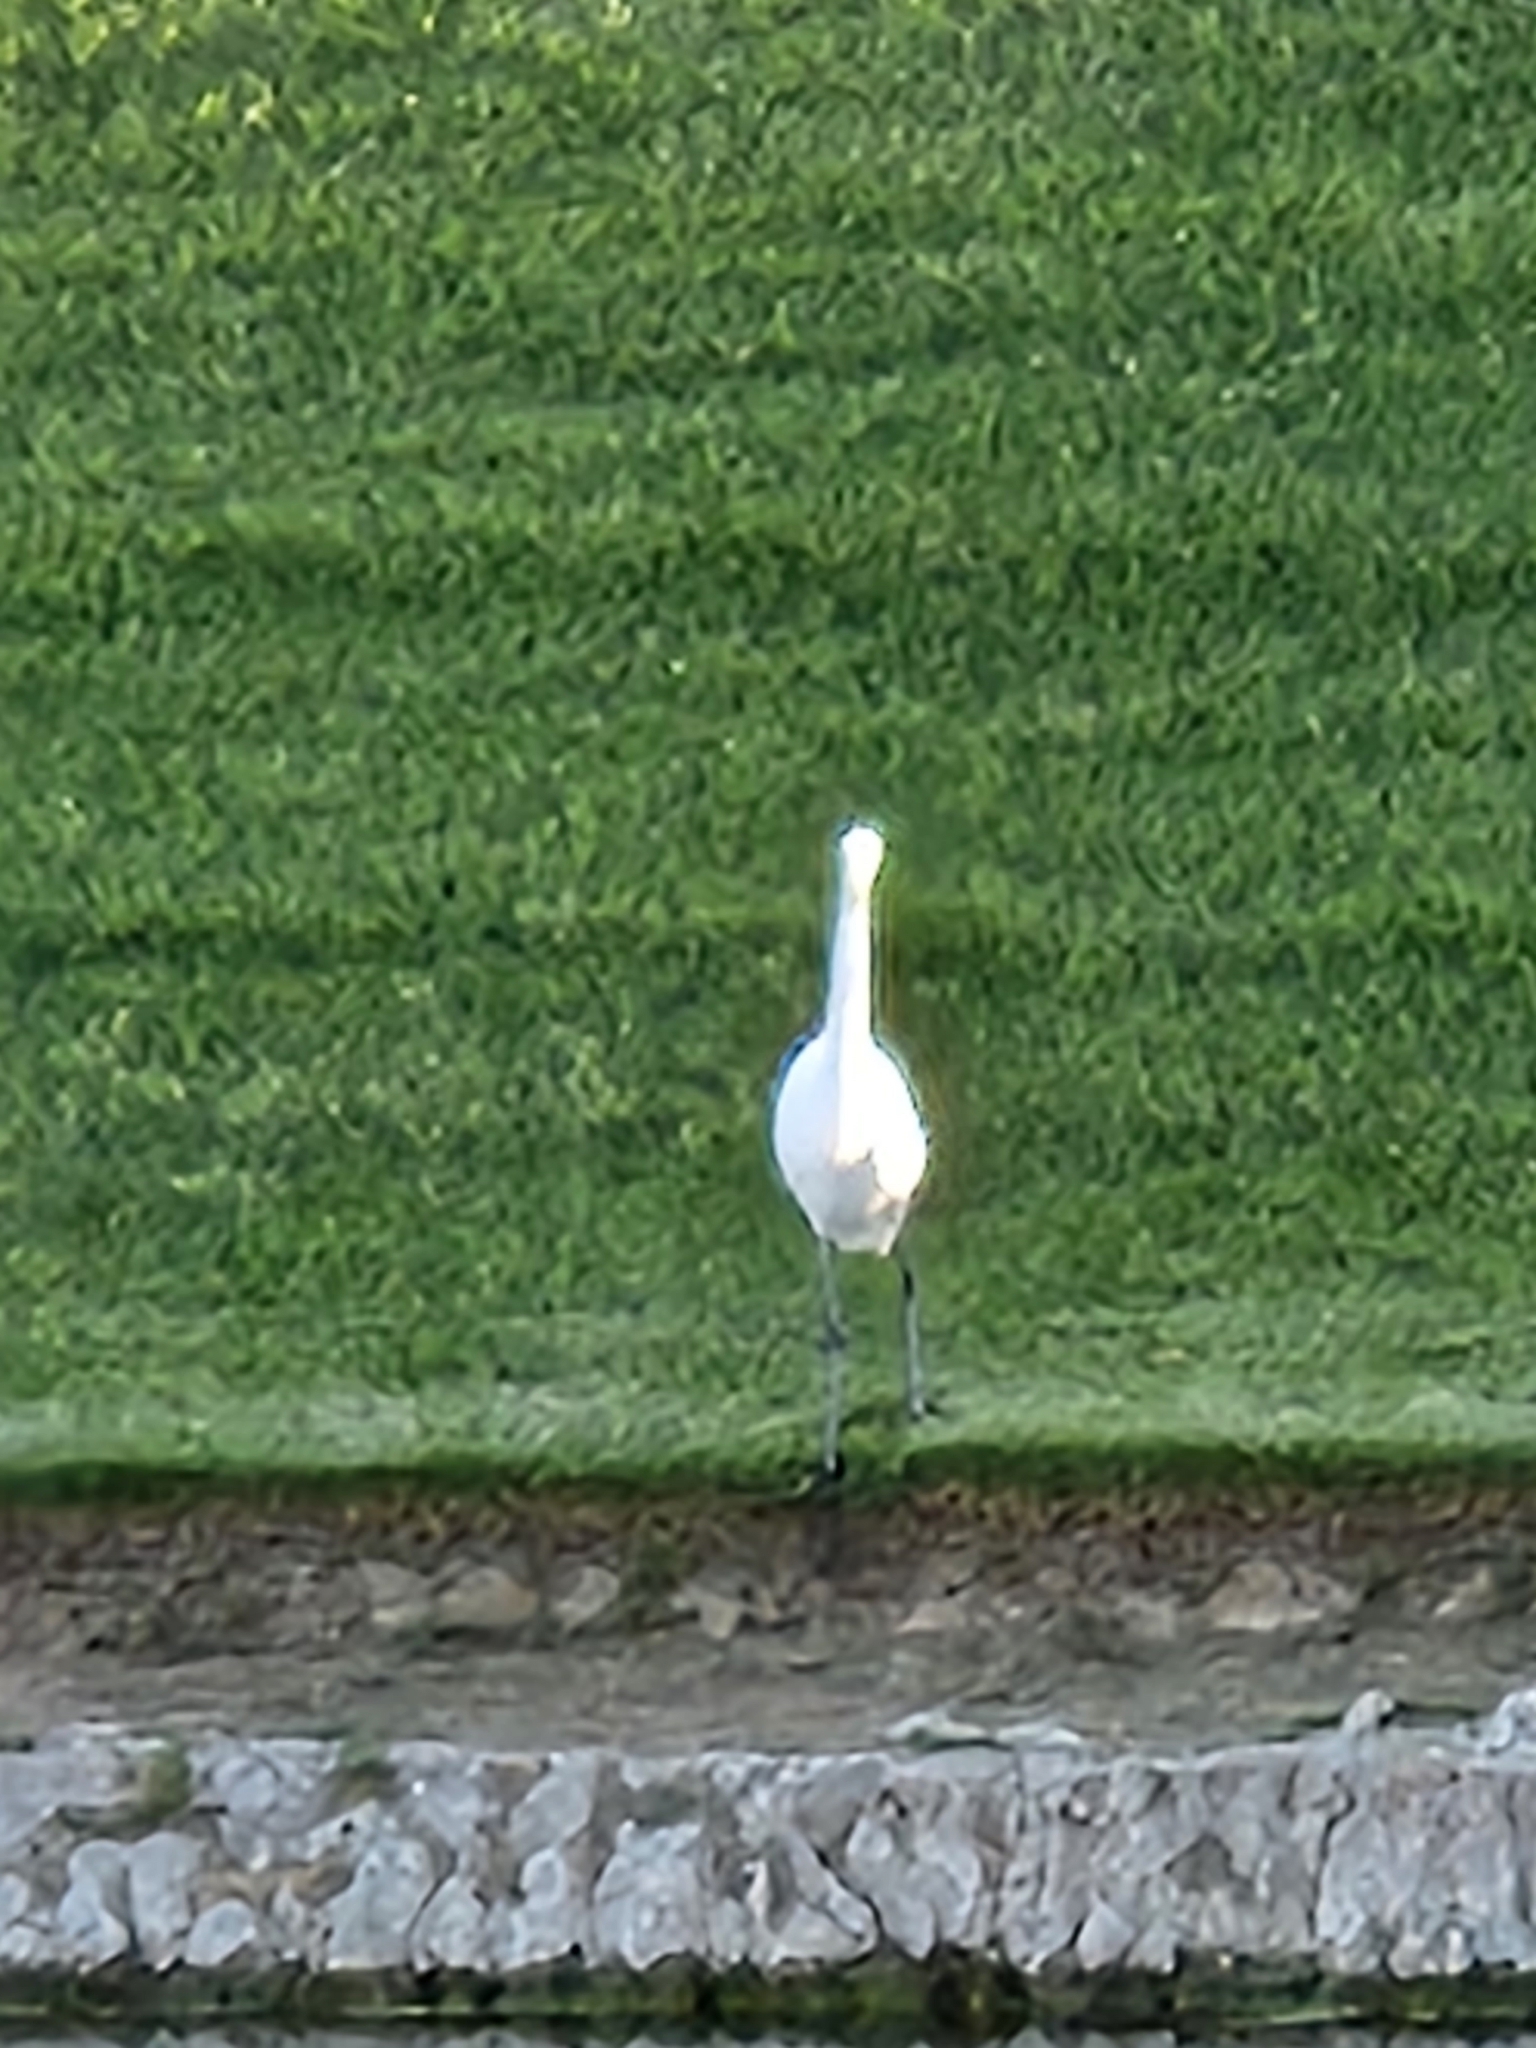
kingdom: Animalia
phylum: Chordata
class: Aves
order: Pelecaniformes
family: Ardeidae
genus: Ardea
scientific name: Ardea alba
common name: Great egret
